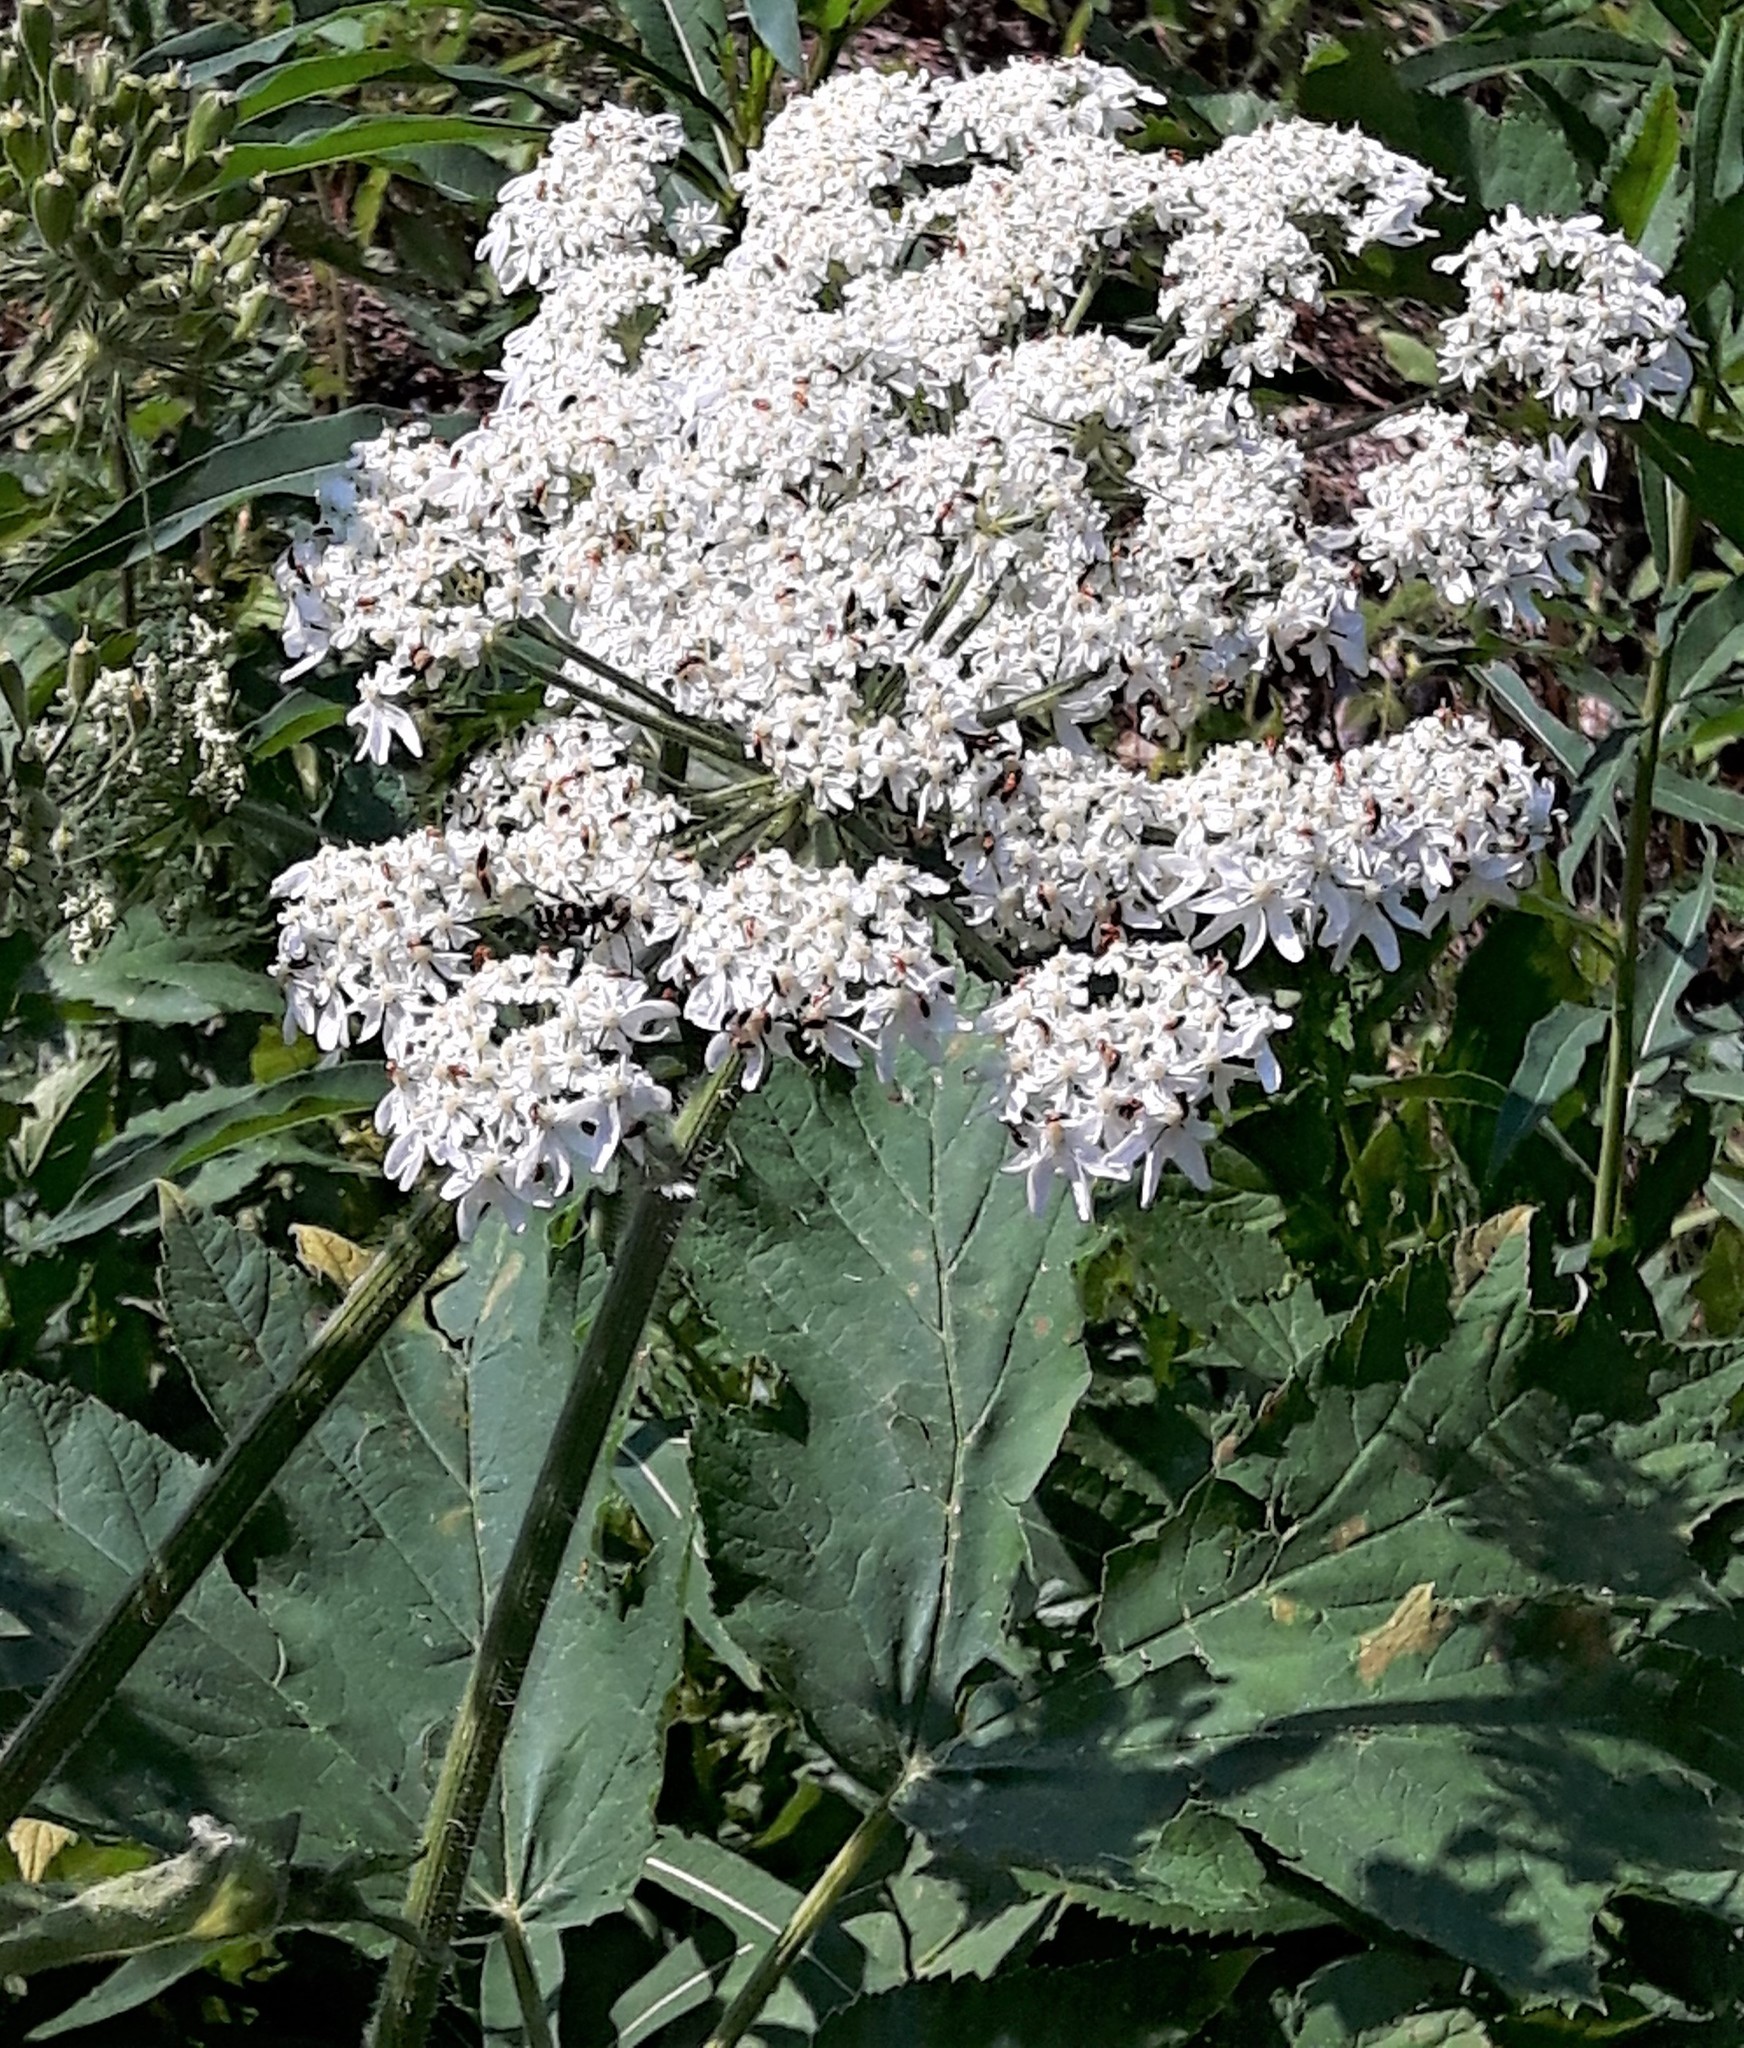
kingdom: Plantae
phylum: Tracheophyta
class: Magnoliopsida
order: Apiales
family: Apiaceae
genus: Heracleum
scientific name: Heracleum maximum
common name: American cow parsnip
